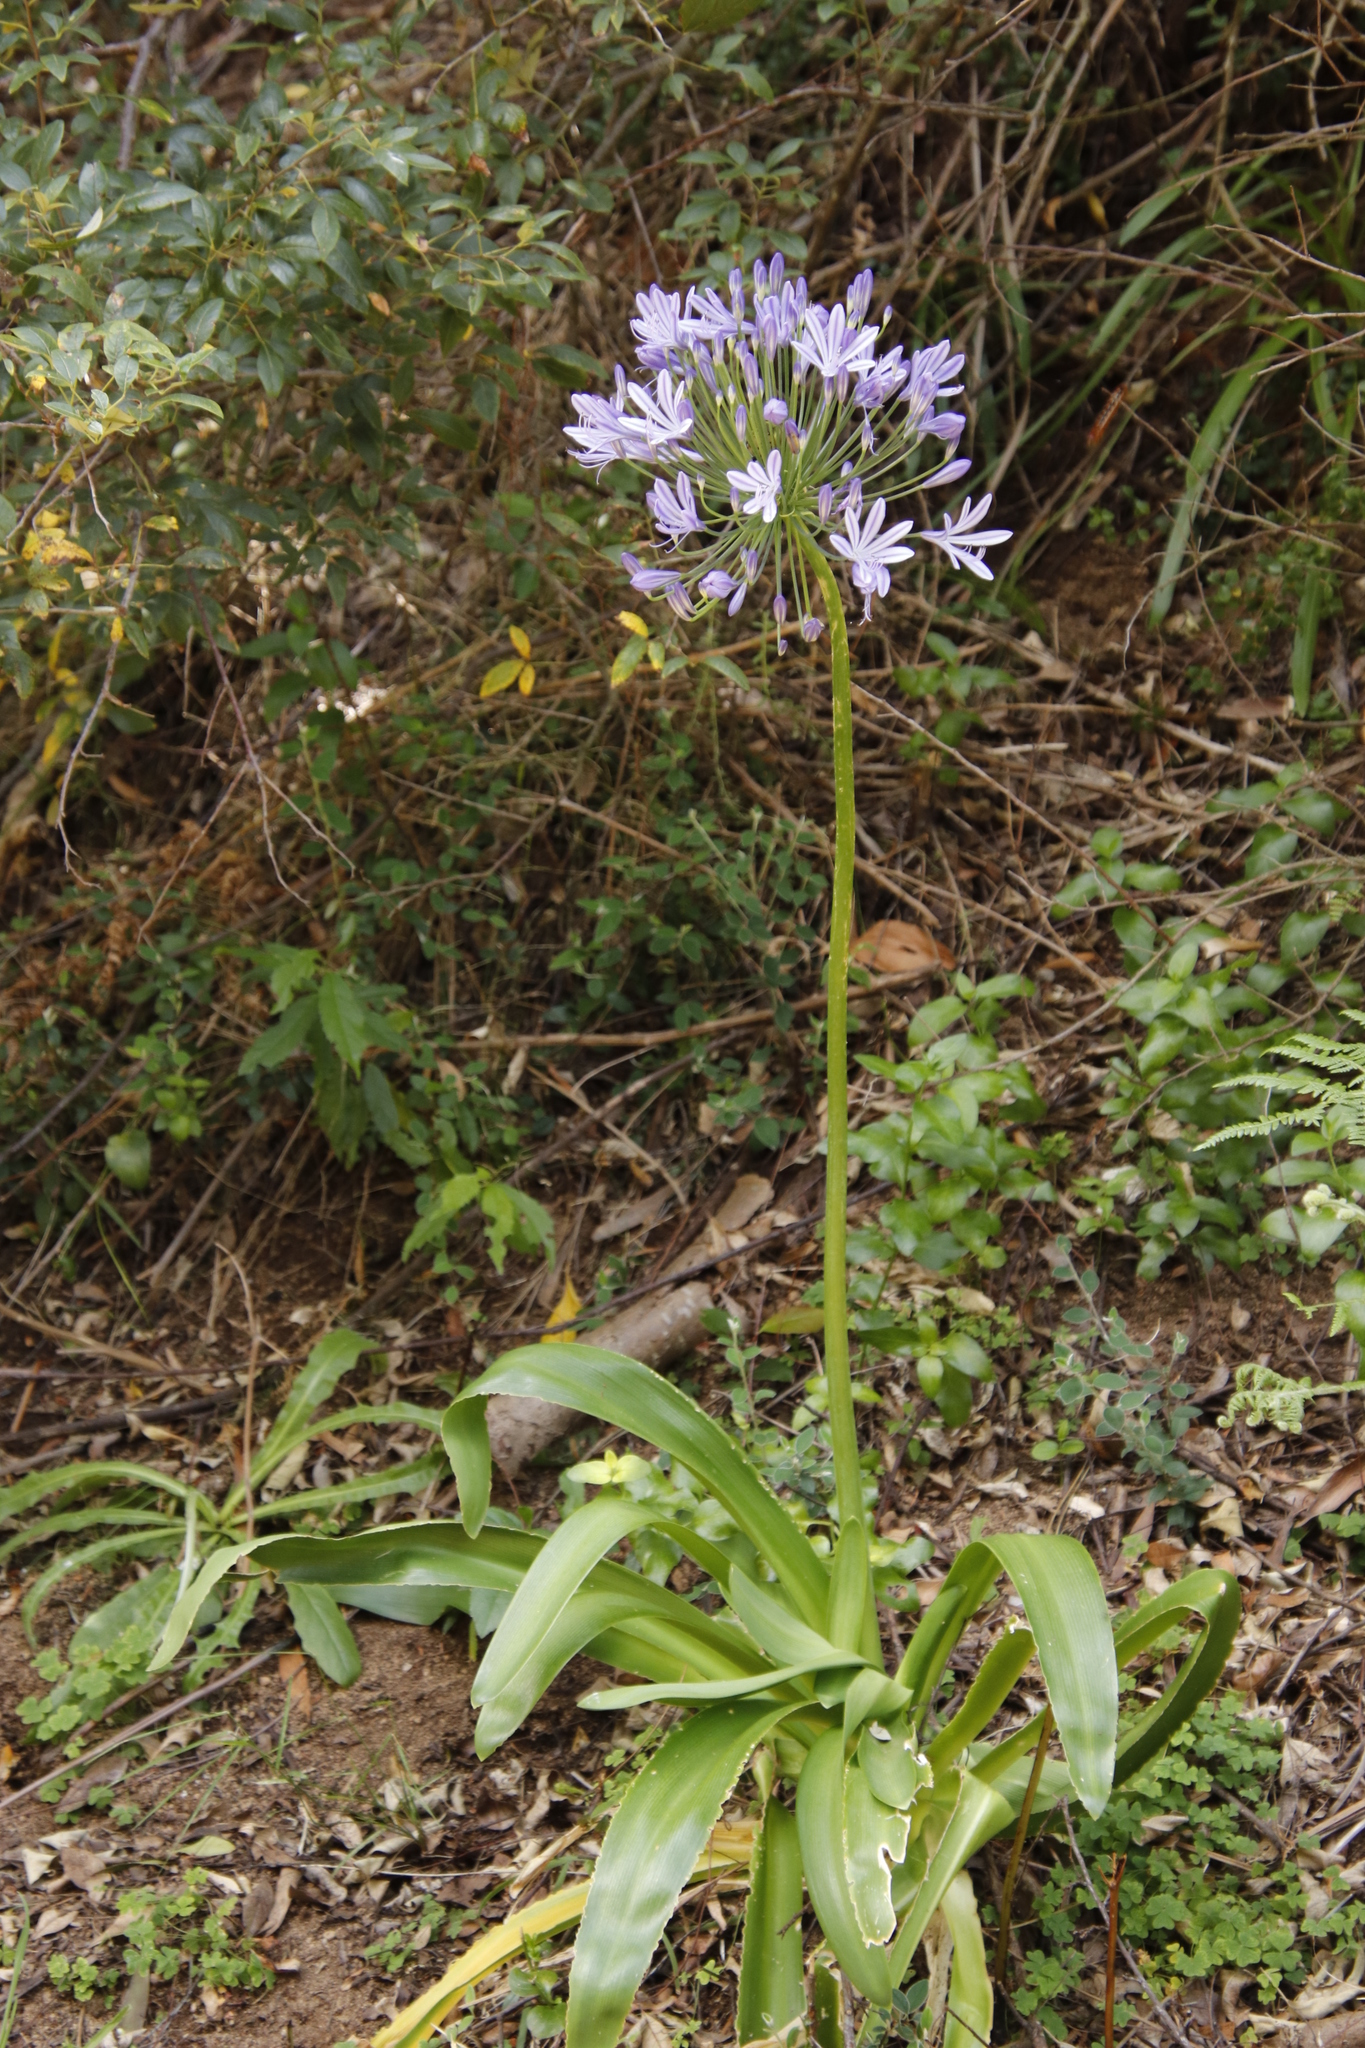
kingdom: Plantae
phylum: Tracheophyta
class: Liliopsida
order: Asparagales
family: Amaryllidaceae
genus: Agapanthus
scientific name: Agapanthus praecox
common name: African-lily
